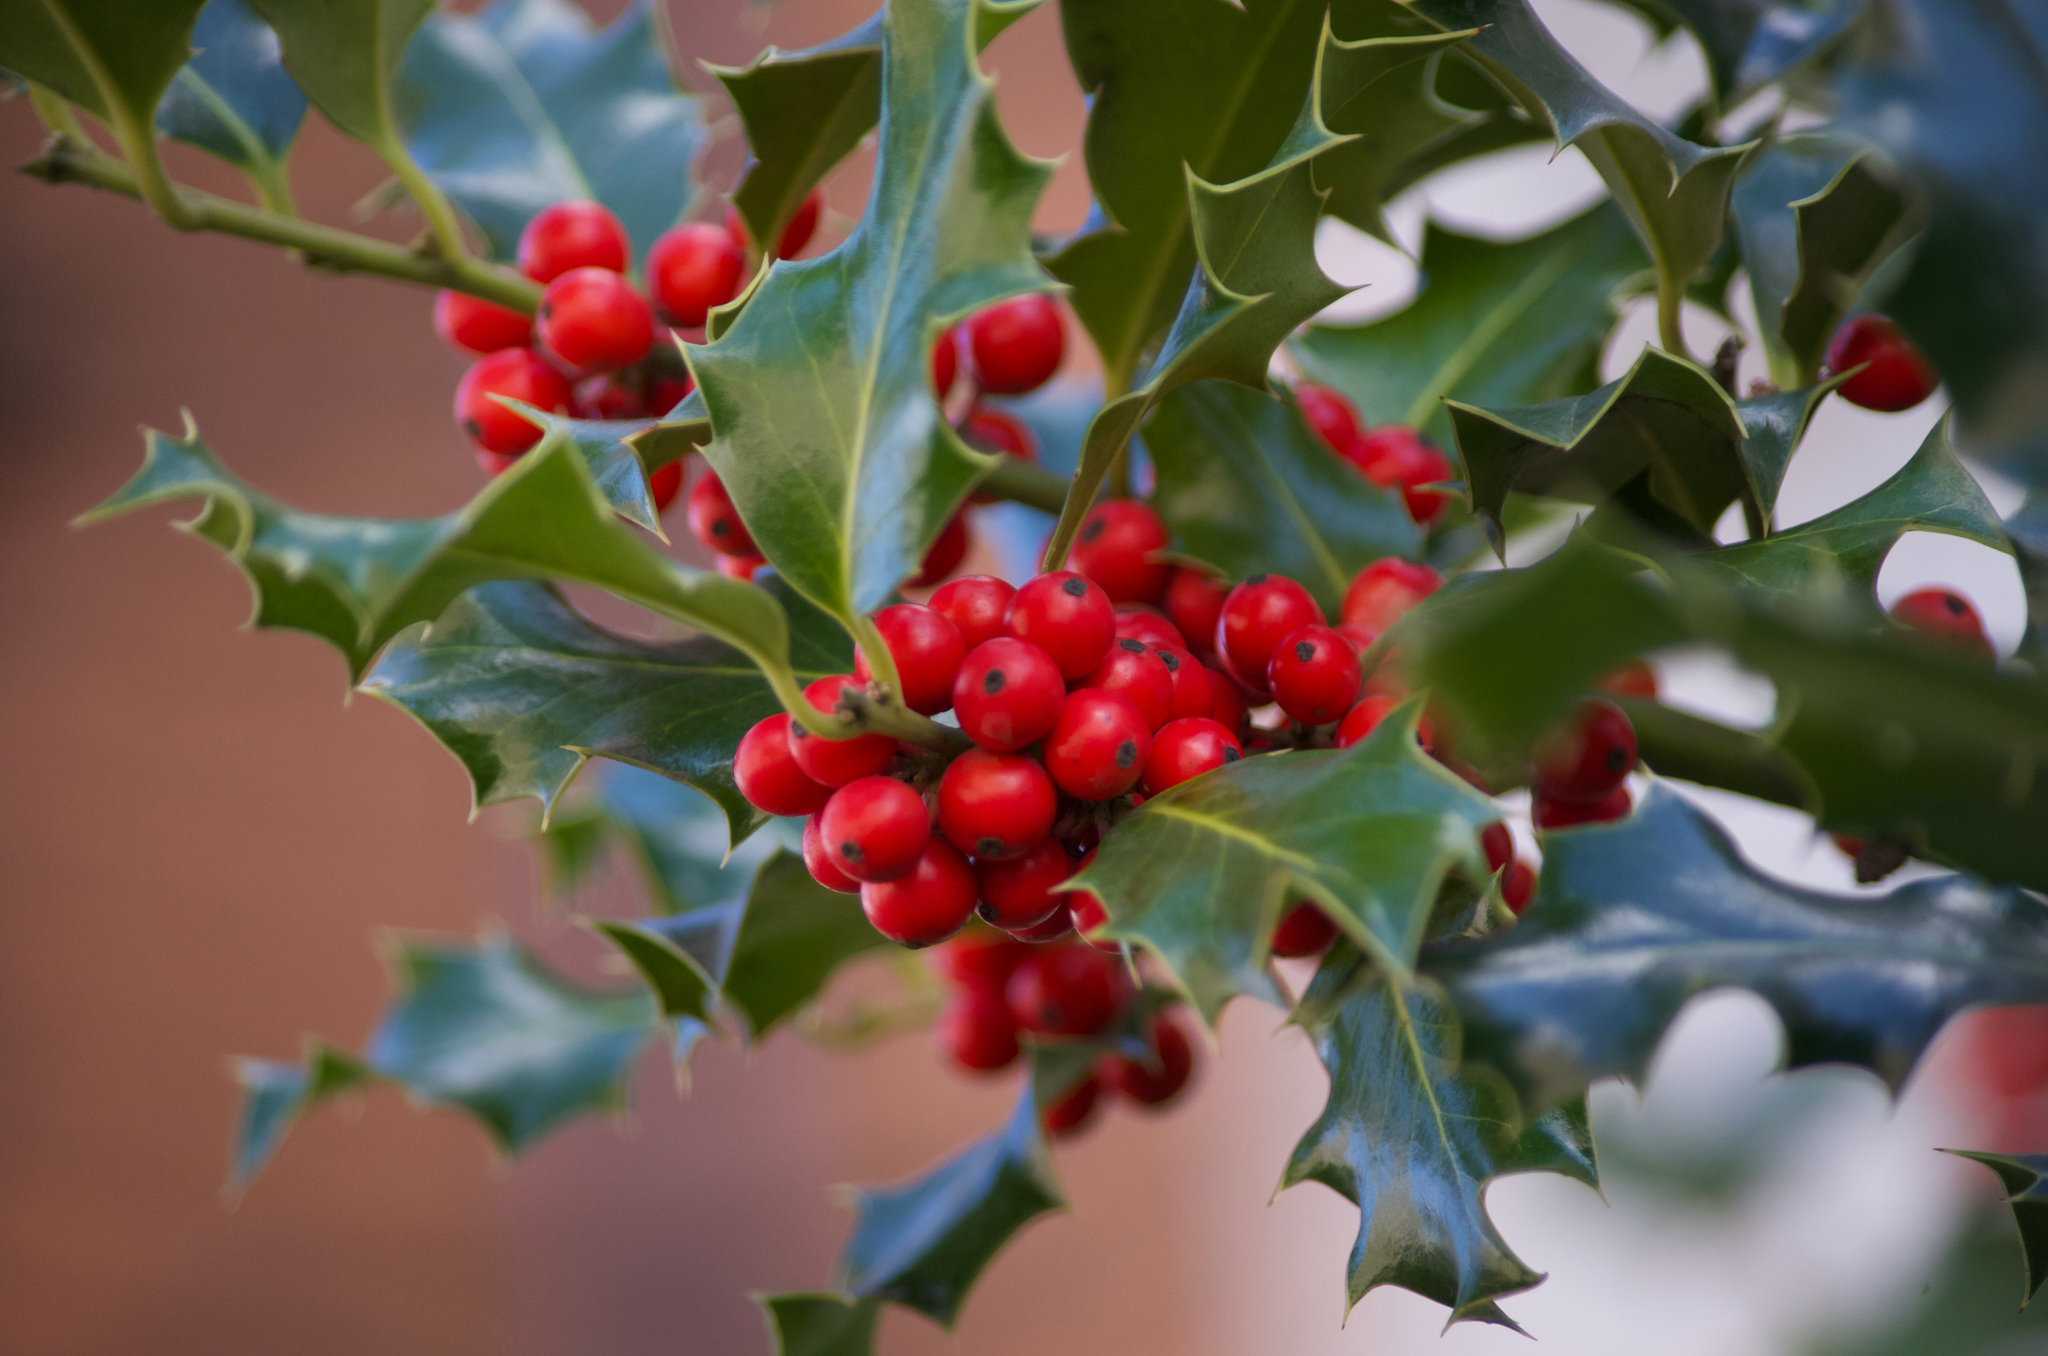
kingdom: Plantae
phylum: Tracheophyta
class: Magnoliopsida
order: Aquifoliales
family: Aquifoliaceae
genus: Ilex
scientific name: Ilex aquifolium
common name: English holly
